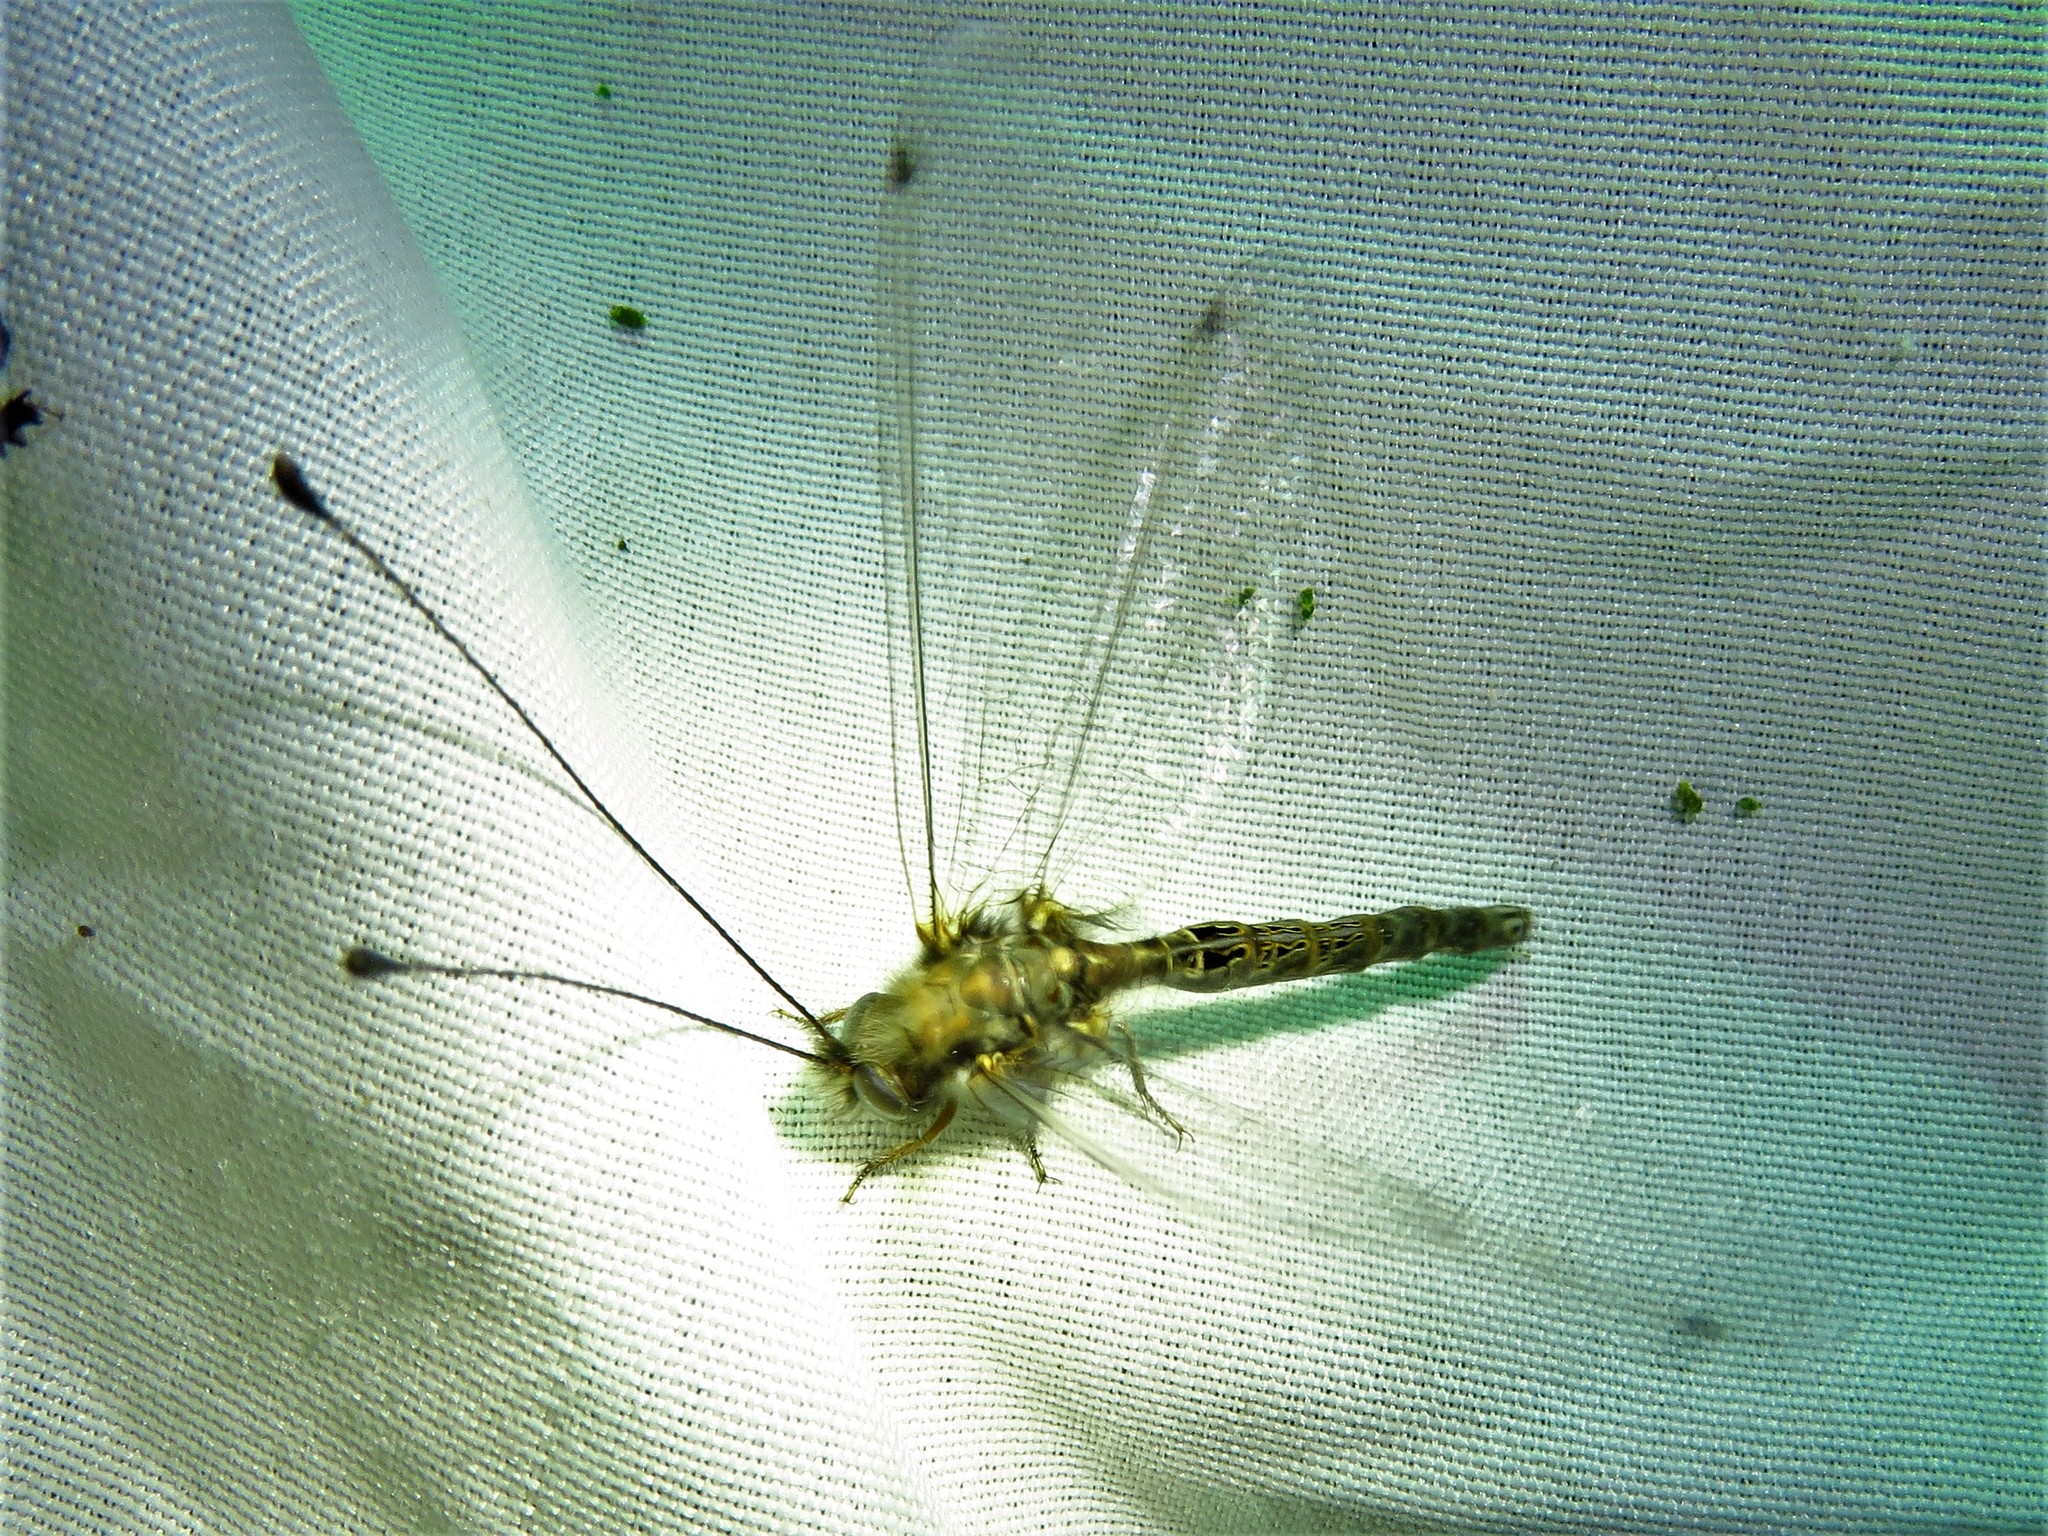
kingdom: Animalia
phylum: Arthropoda
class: Insecta
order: Neuroptera
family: Ascalaphidae
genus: Ululodes
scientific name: Ululodes macleayanus
